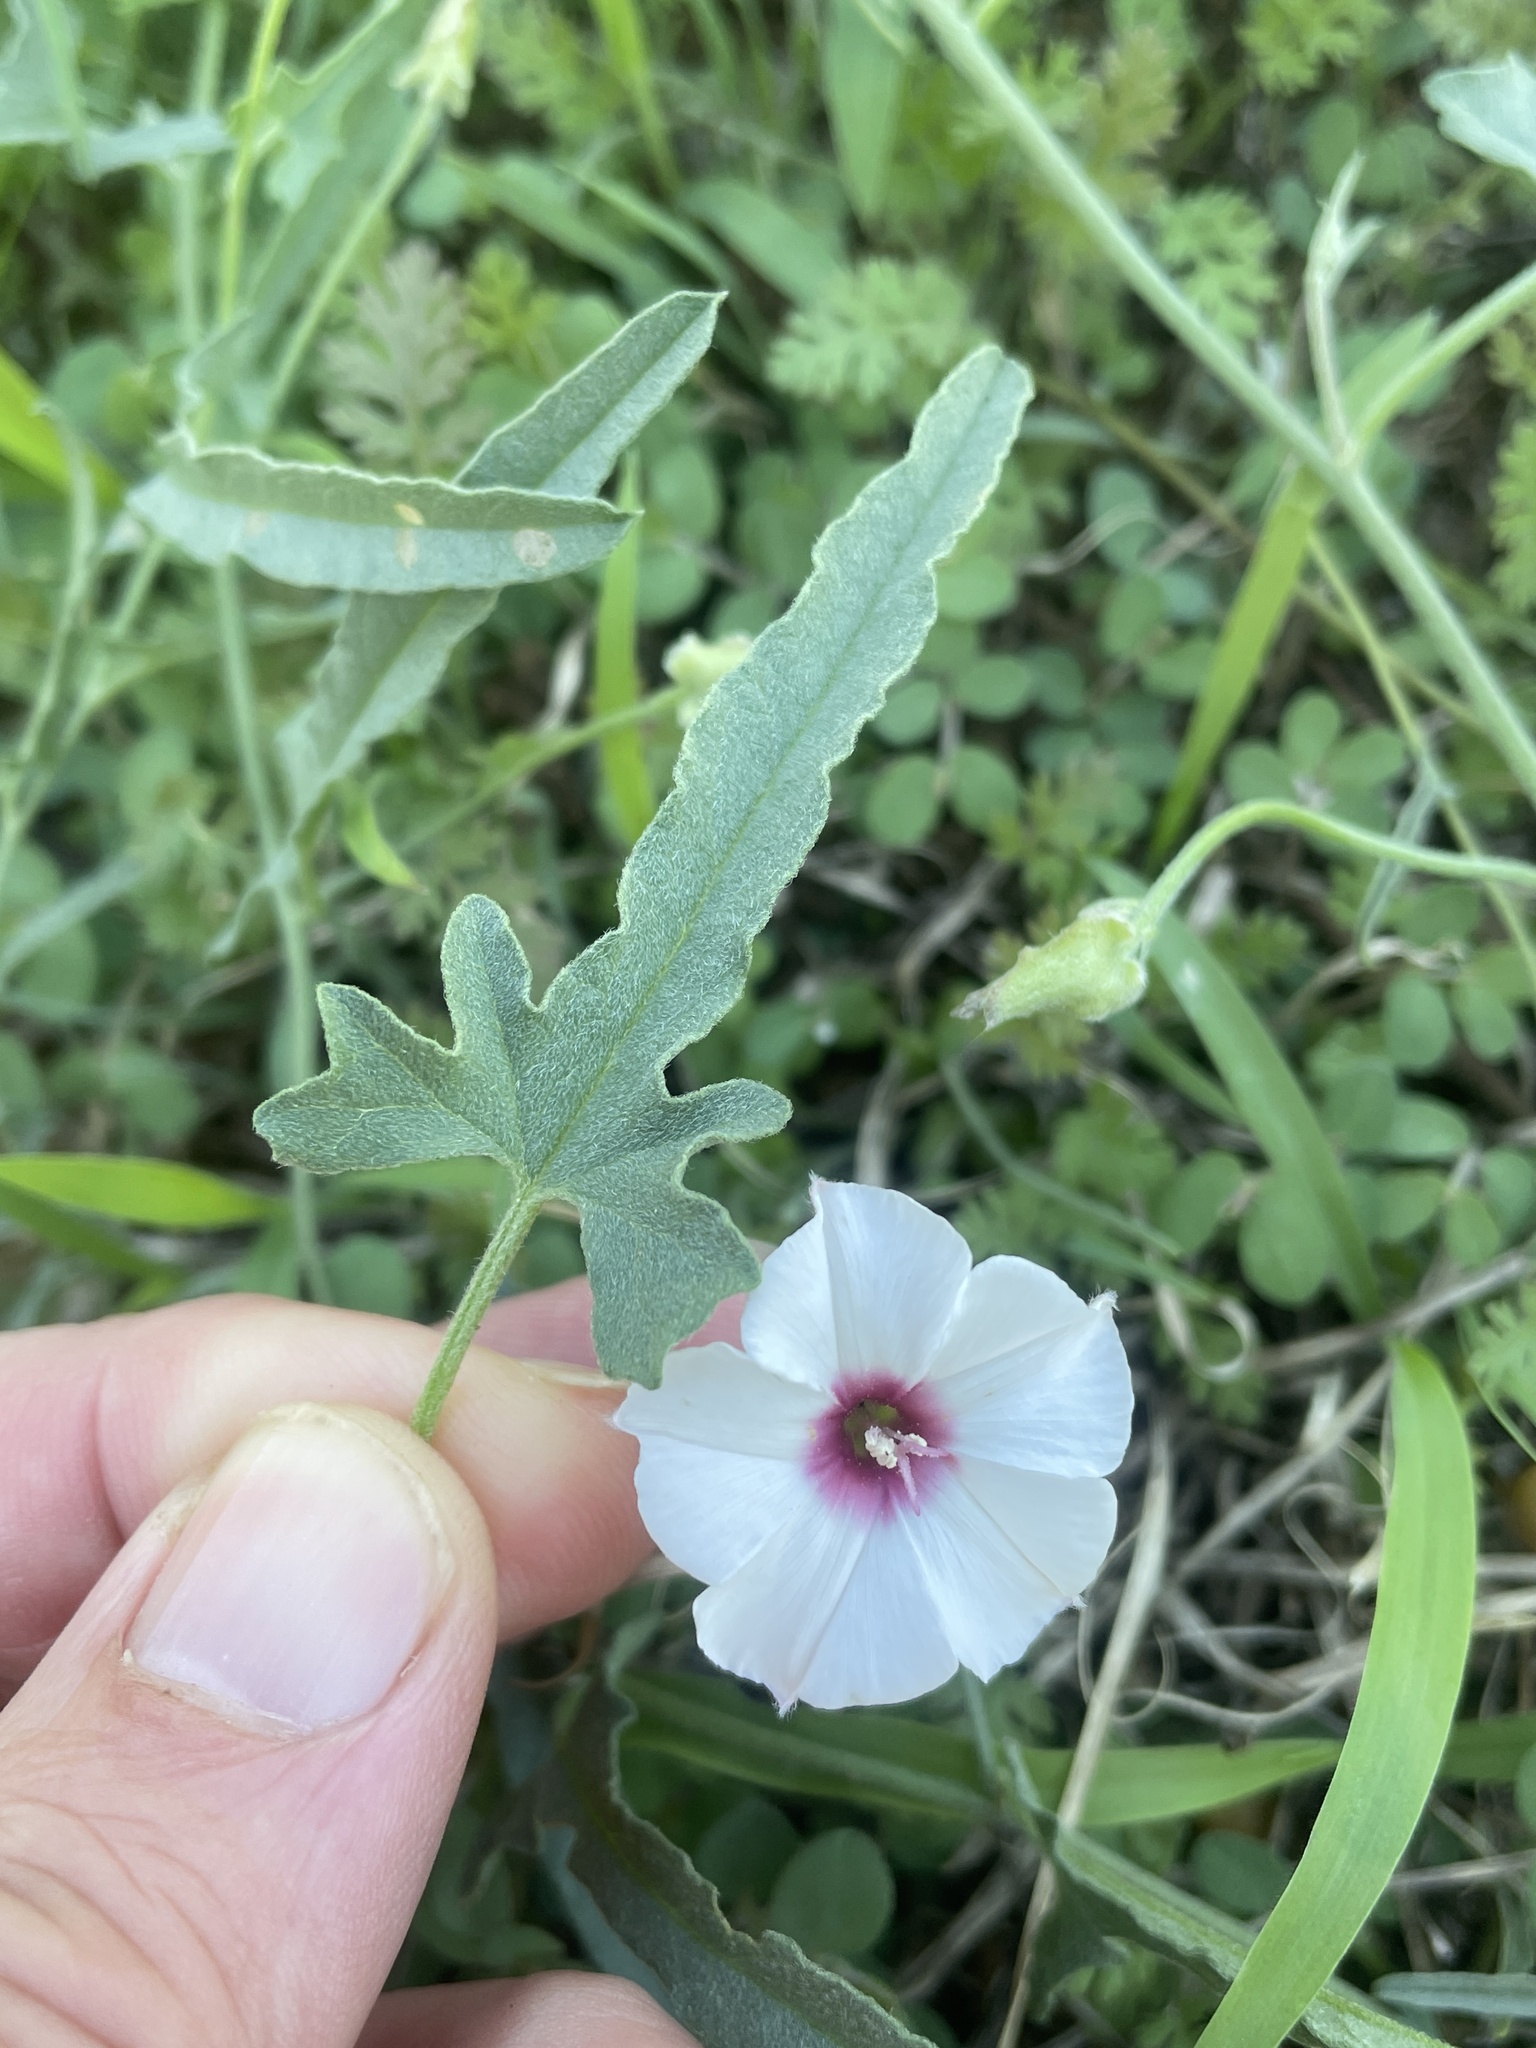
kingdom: Plantae
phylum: Tracheophyta
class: Magnoliopsida
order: Solanales
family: Convolvulaceae
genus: Convolvulus
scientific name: Convolvulus equitans
